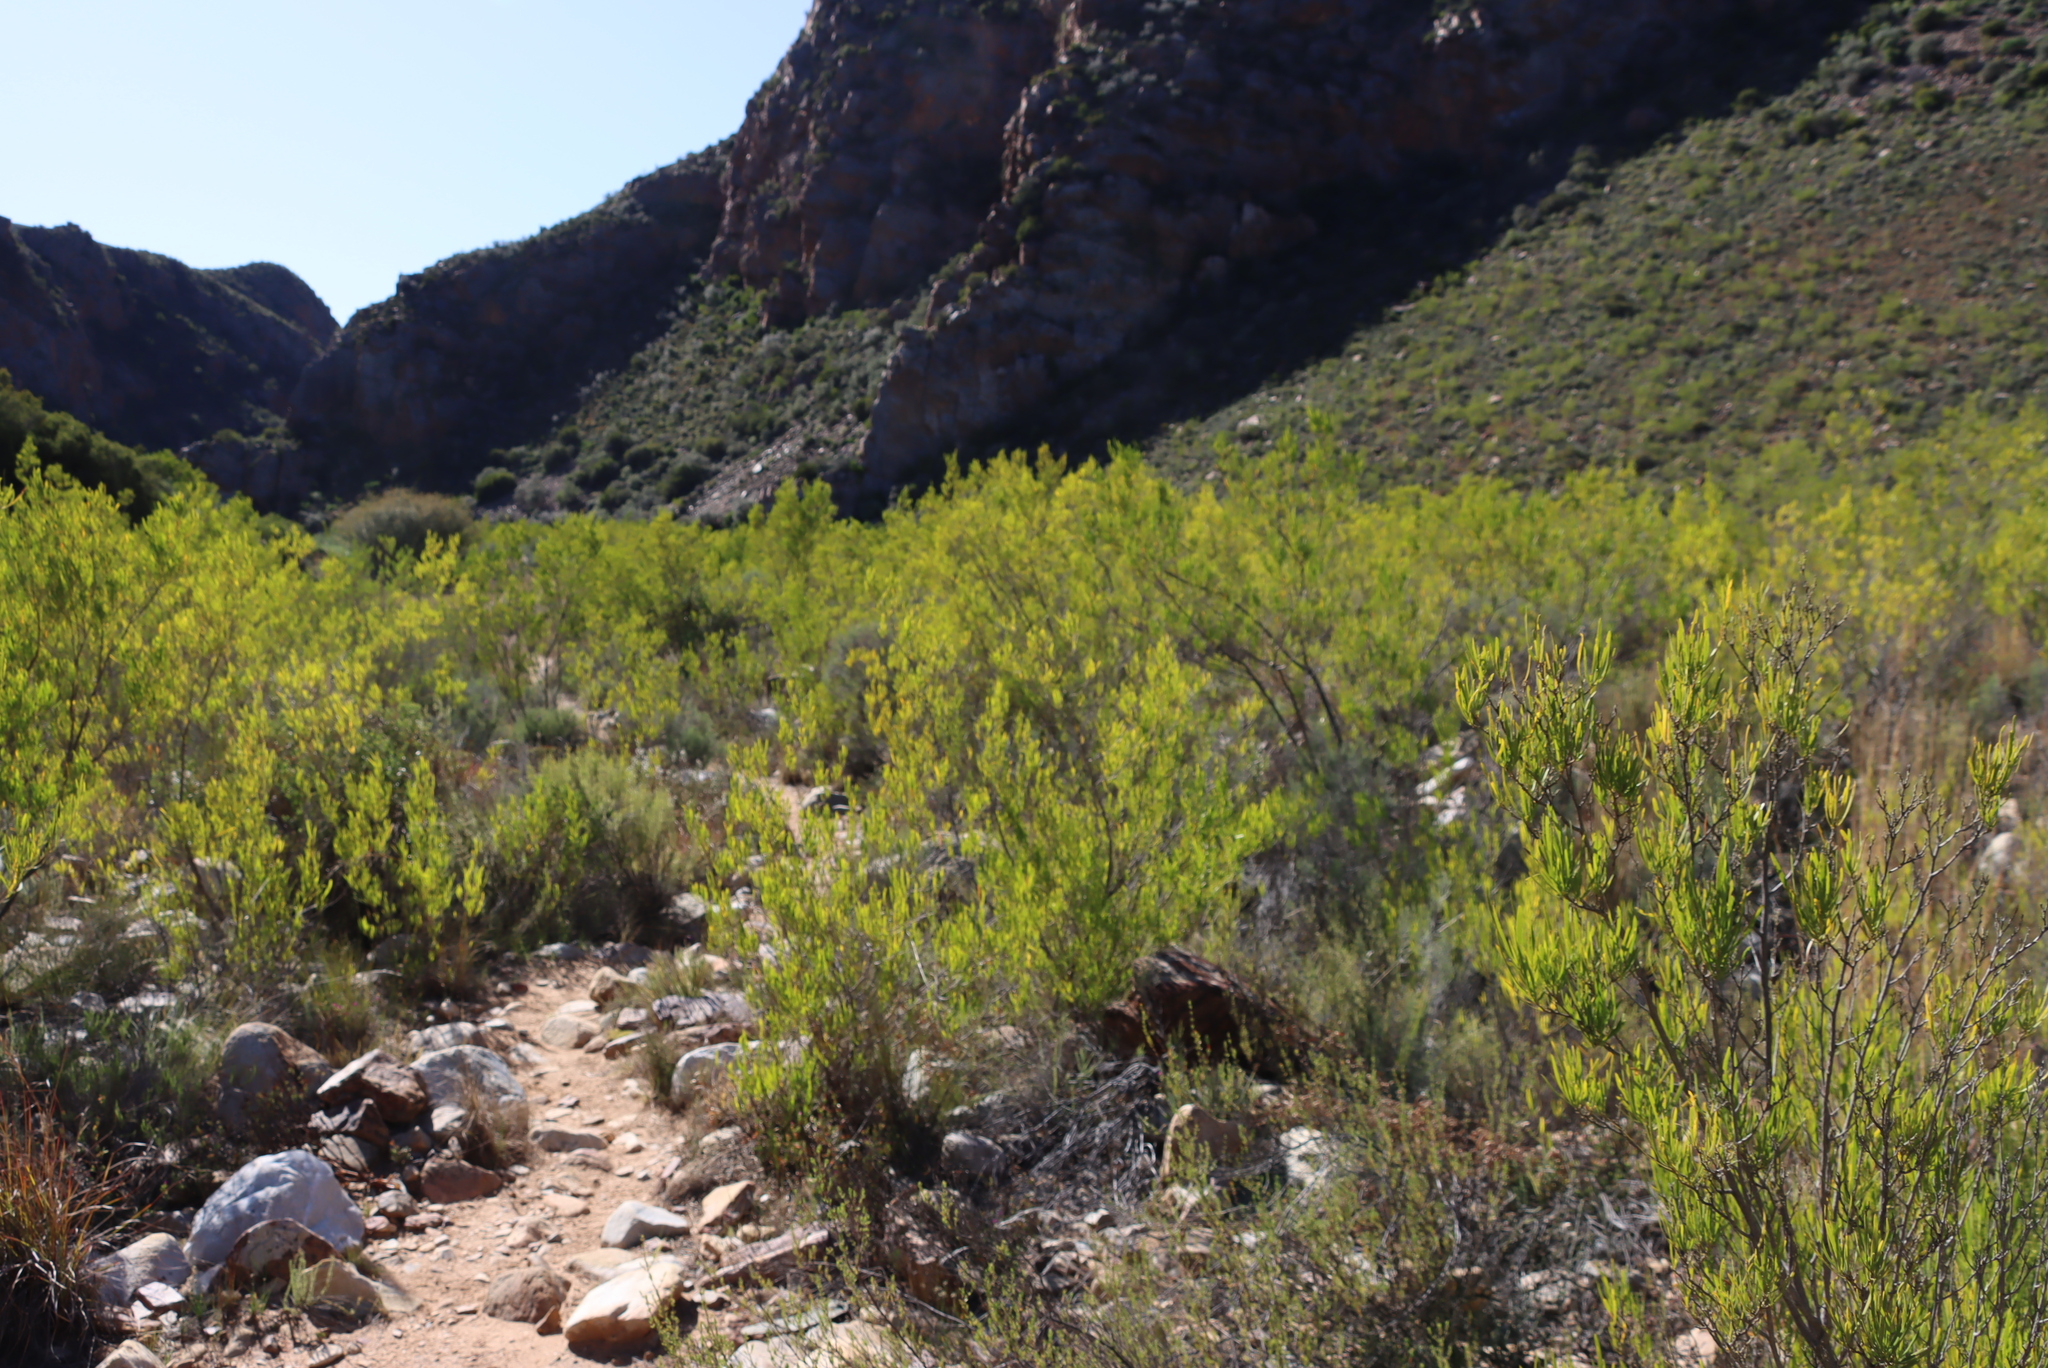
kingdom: Plantae
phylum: Tracheophyta
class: Magnoliopsida
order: Sapindales
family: Sapindaceae
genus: Dodonaea
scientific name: Dodonaea viscosa
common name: Hopbush
